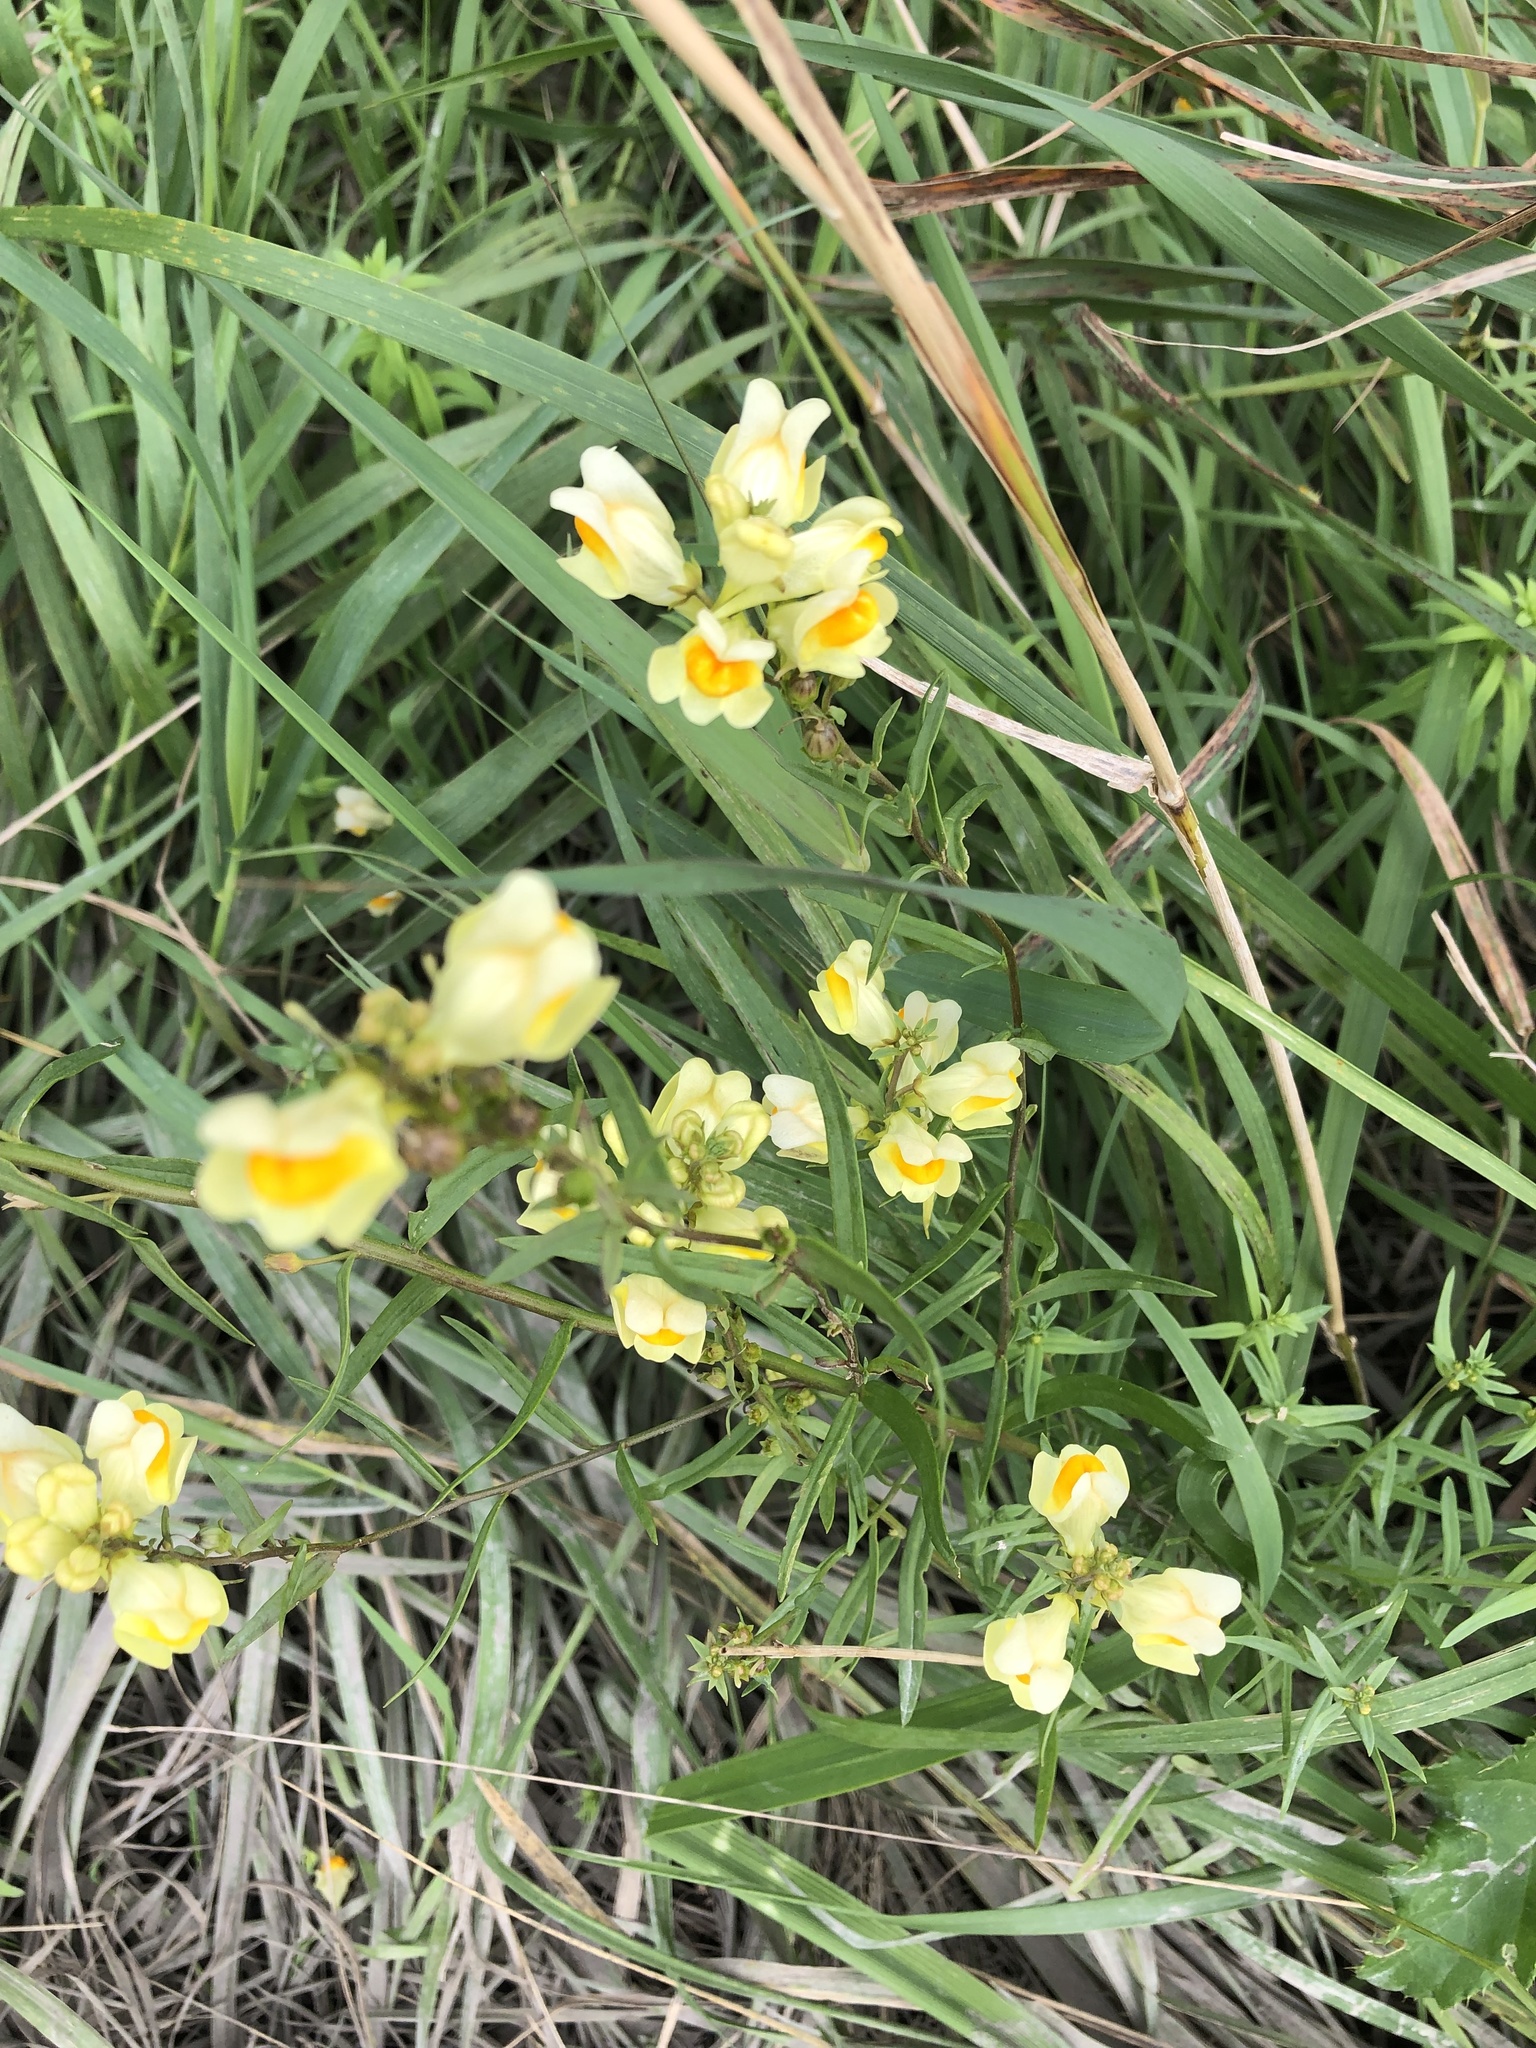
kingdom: Plantae
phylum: Tracheophyta
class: Magnoliopsida
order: Lamiales
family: Plantaginaceae
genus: Linaria
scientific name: Linaria vulgaris
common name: Butter and eggs
